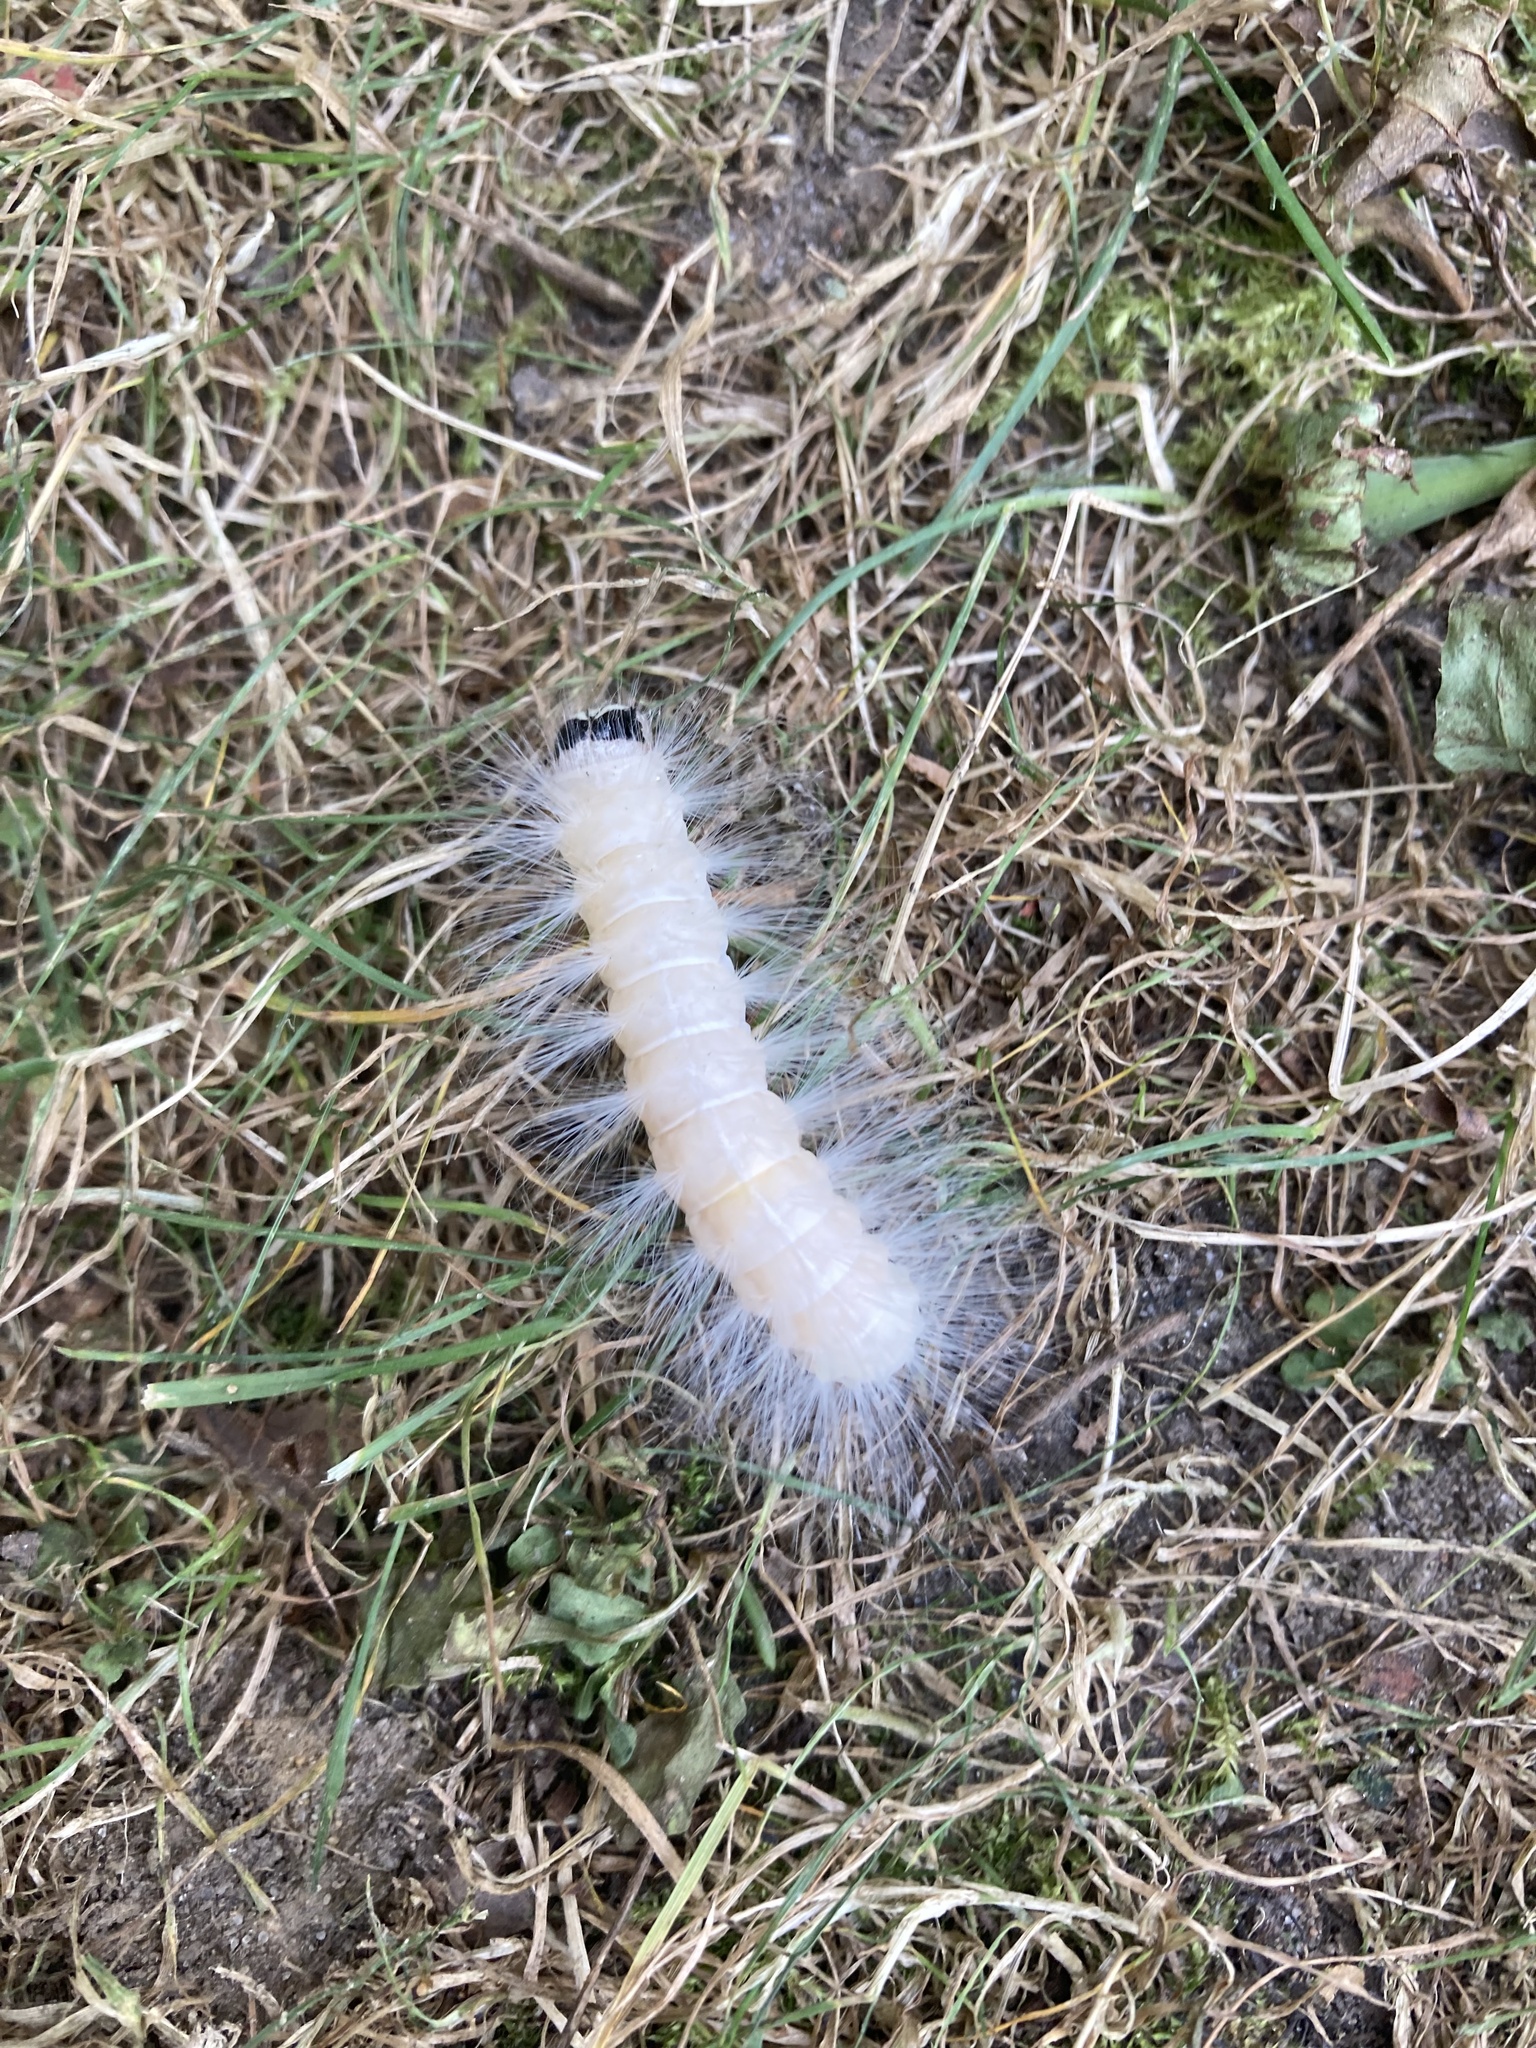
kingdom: Animalia
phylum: Arthropoda
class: Insecta
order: Lepidoptera
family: Noctuidae
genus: Charadra
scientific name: Charadra deridens
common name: Marbled tuffet
